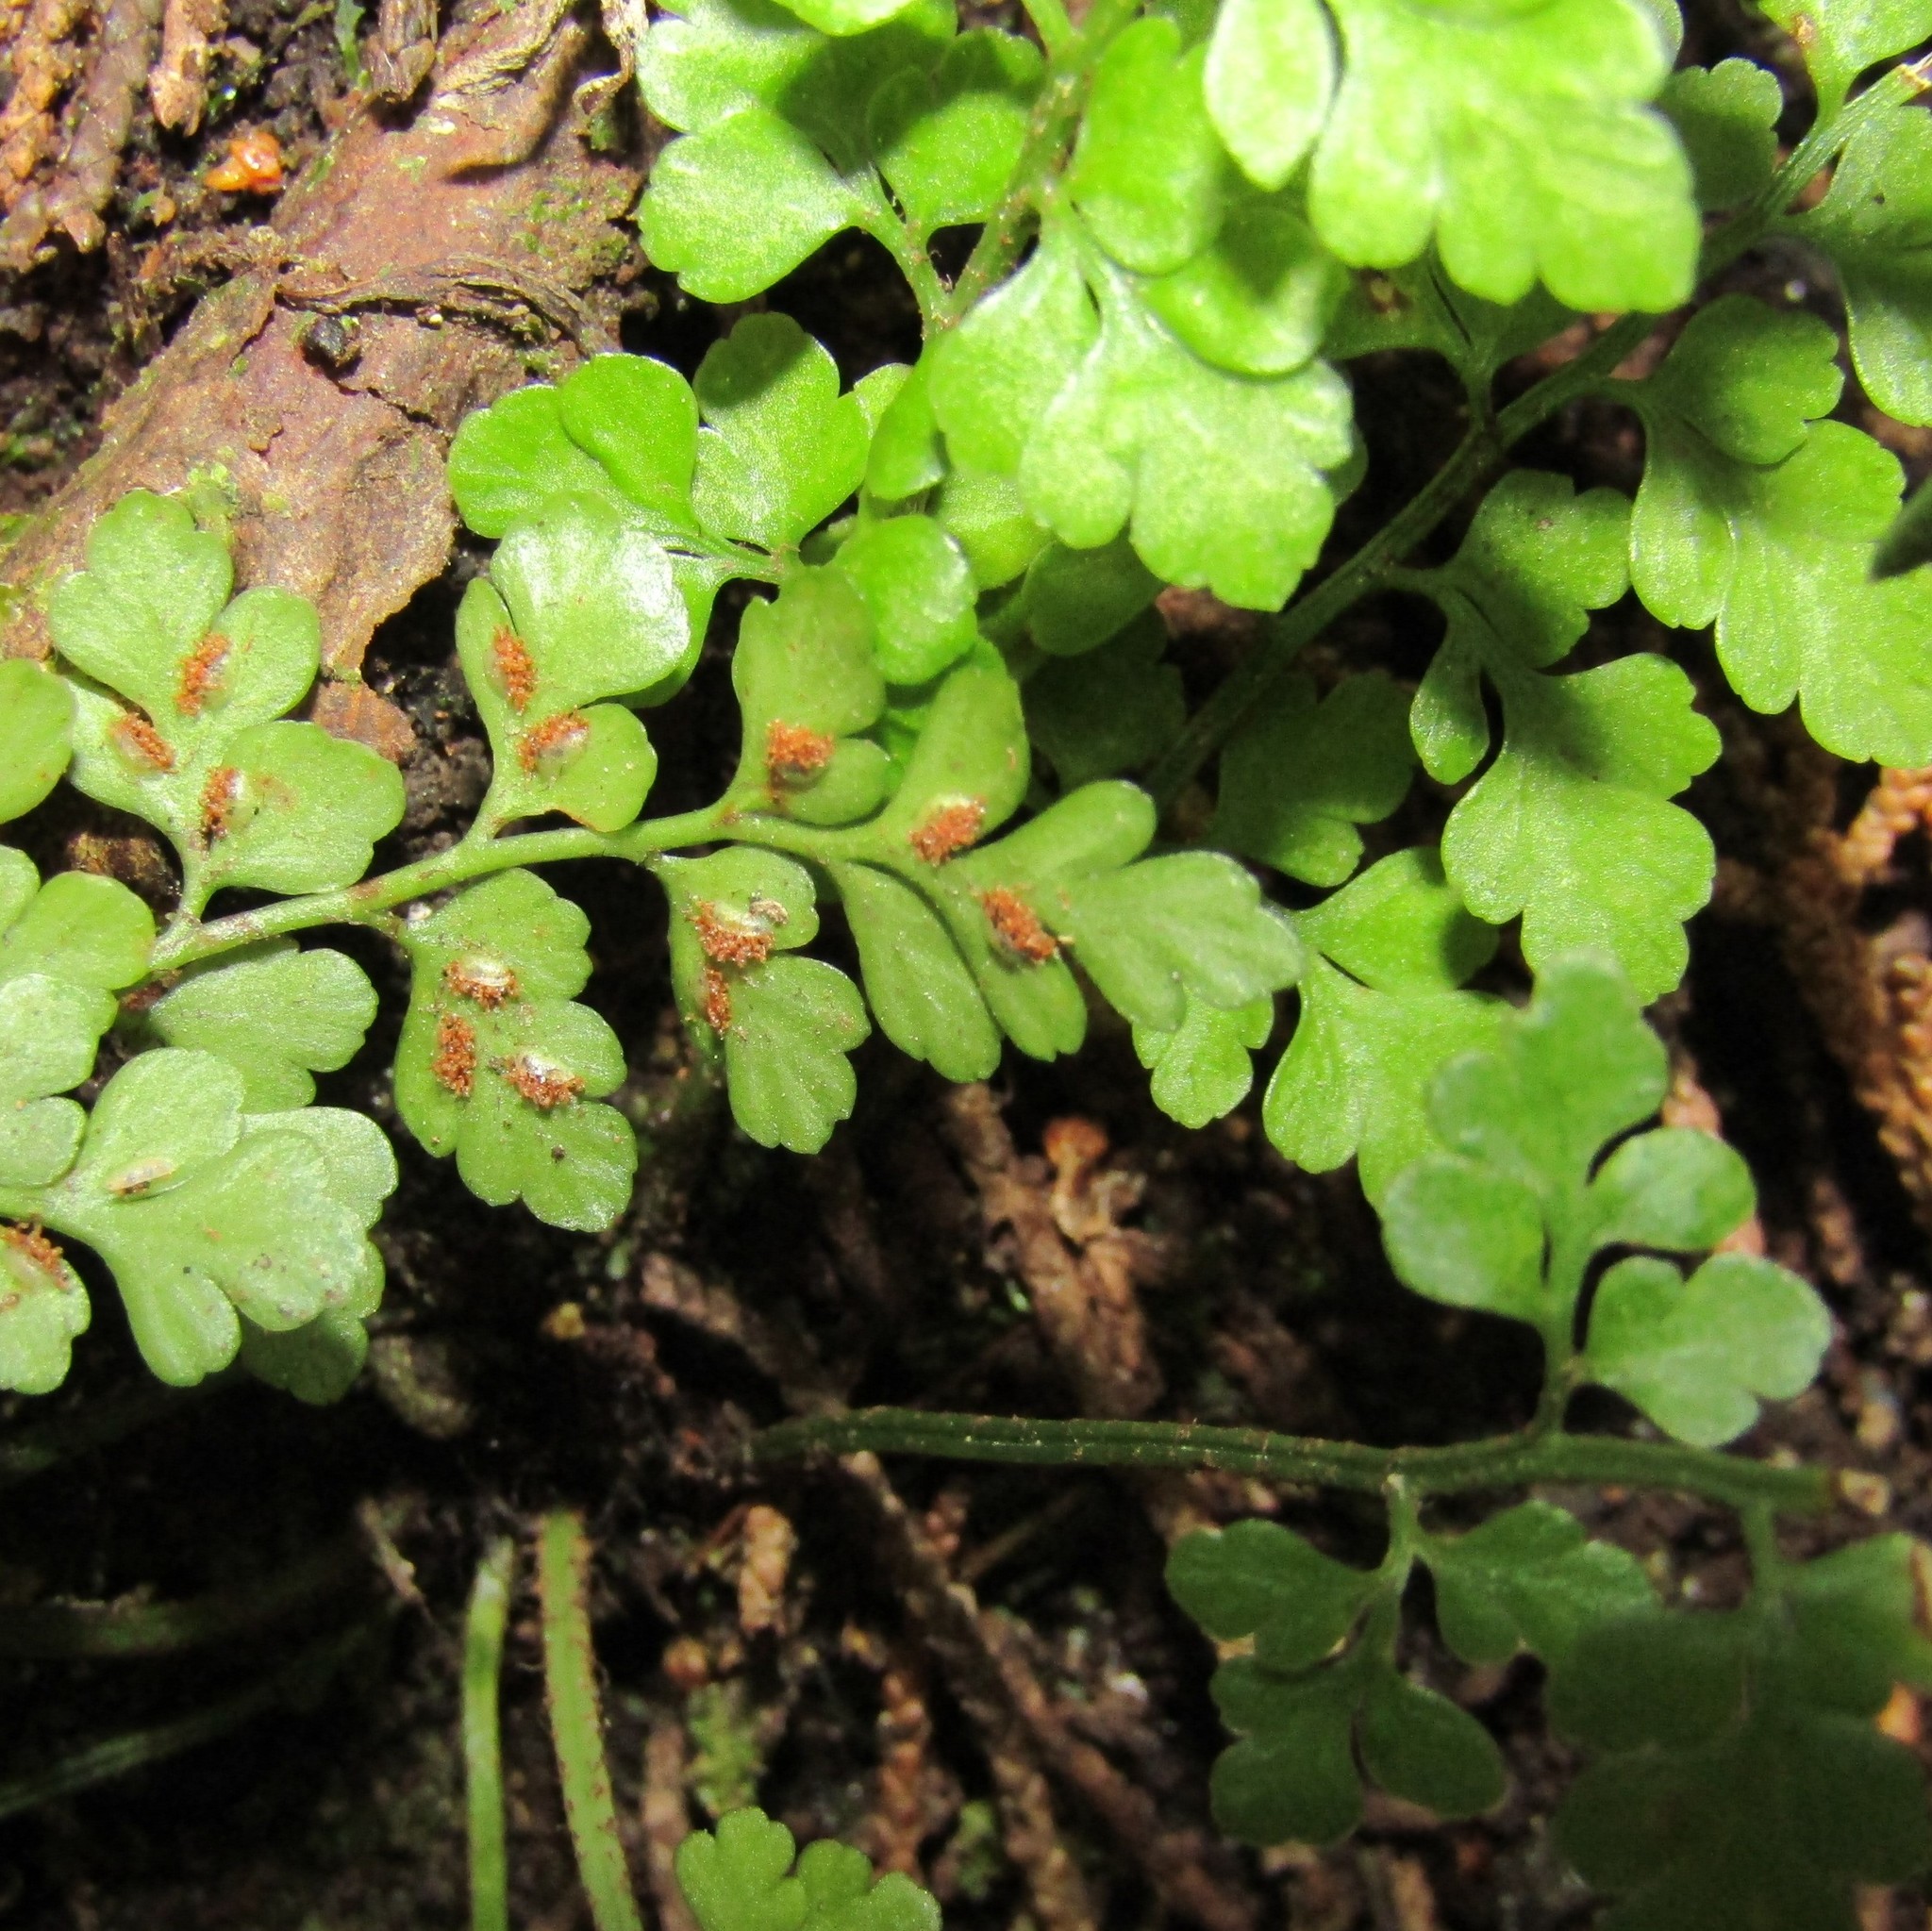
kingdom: Plantae
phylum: Tracheophyta
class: Polypodiopsida
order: Polypodiales
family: Aspleniaceae
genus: Asplenium
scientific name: Asplenium hookerianum
